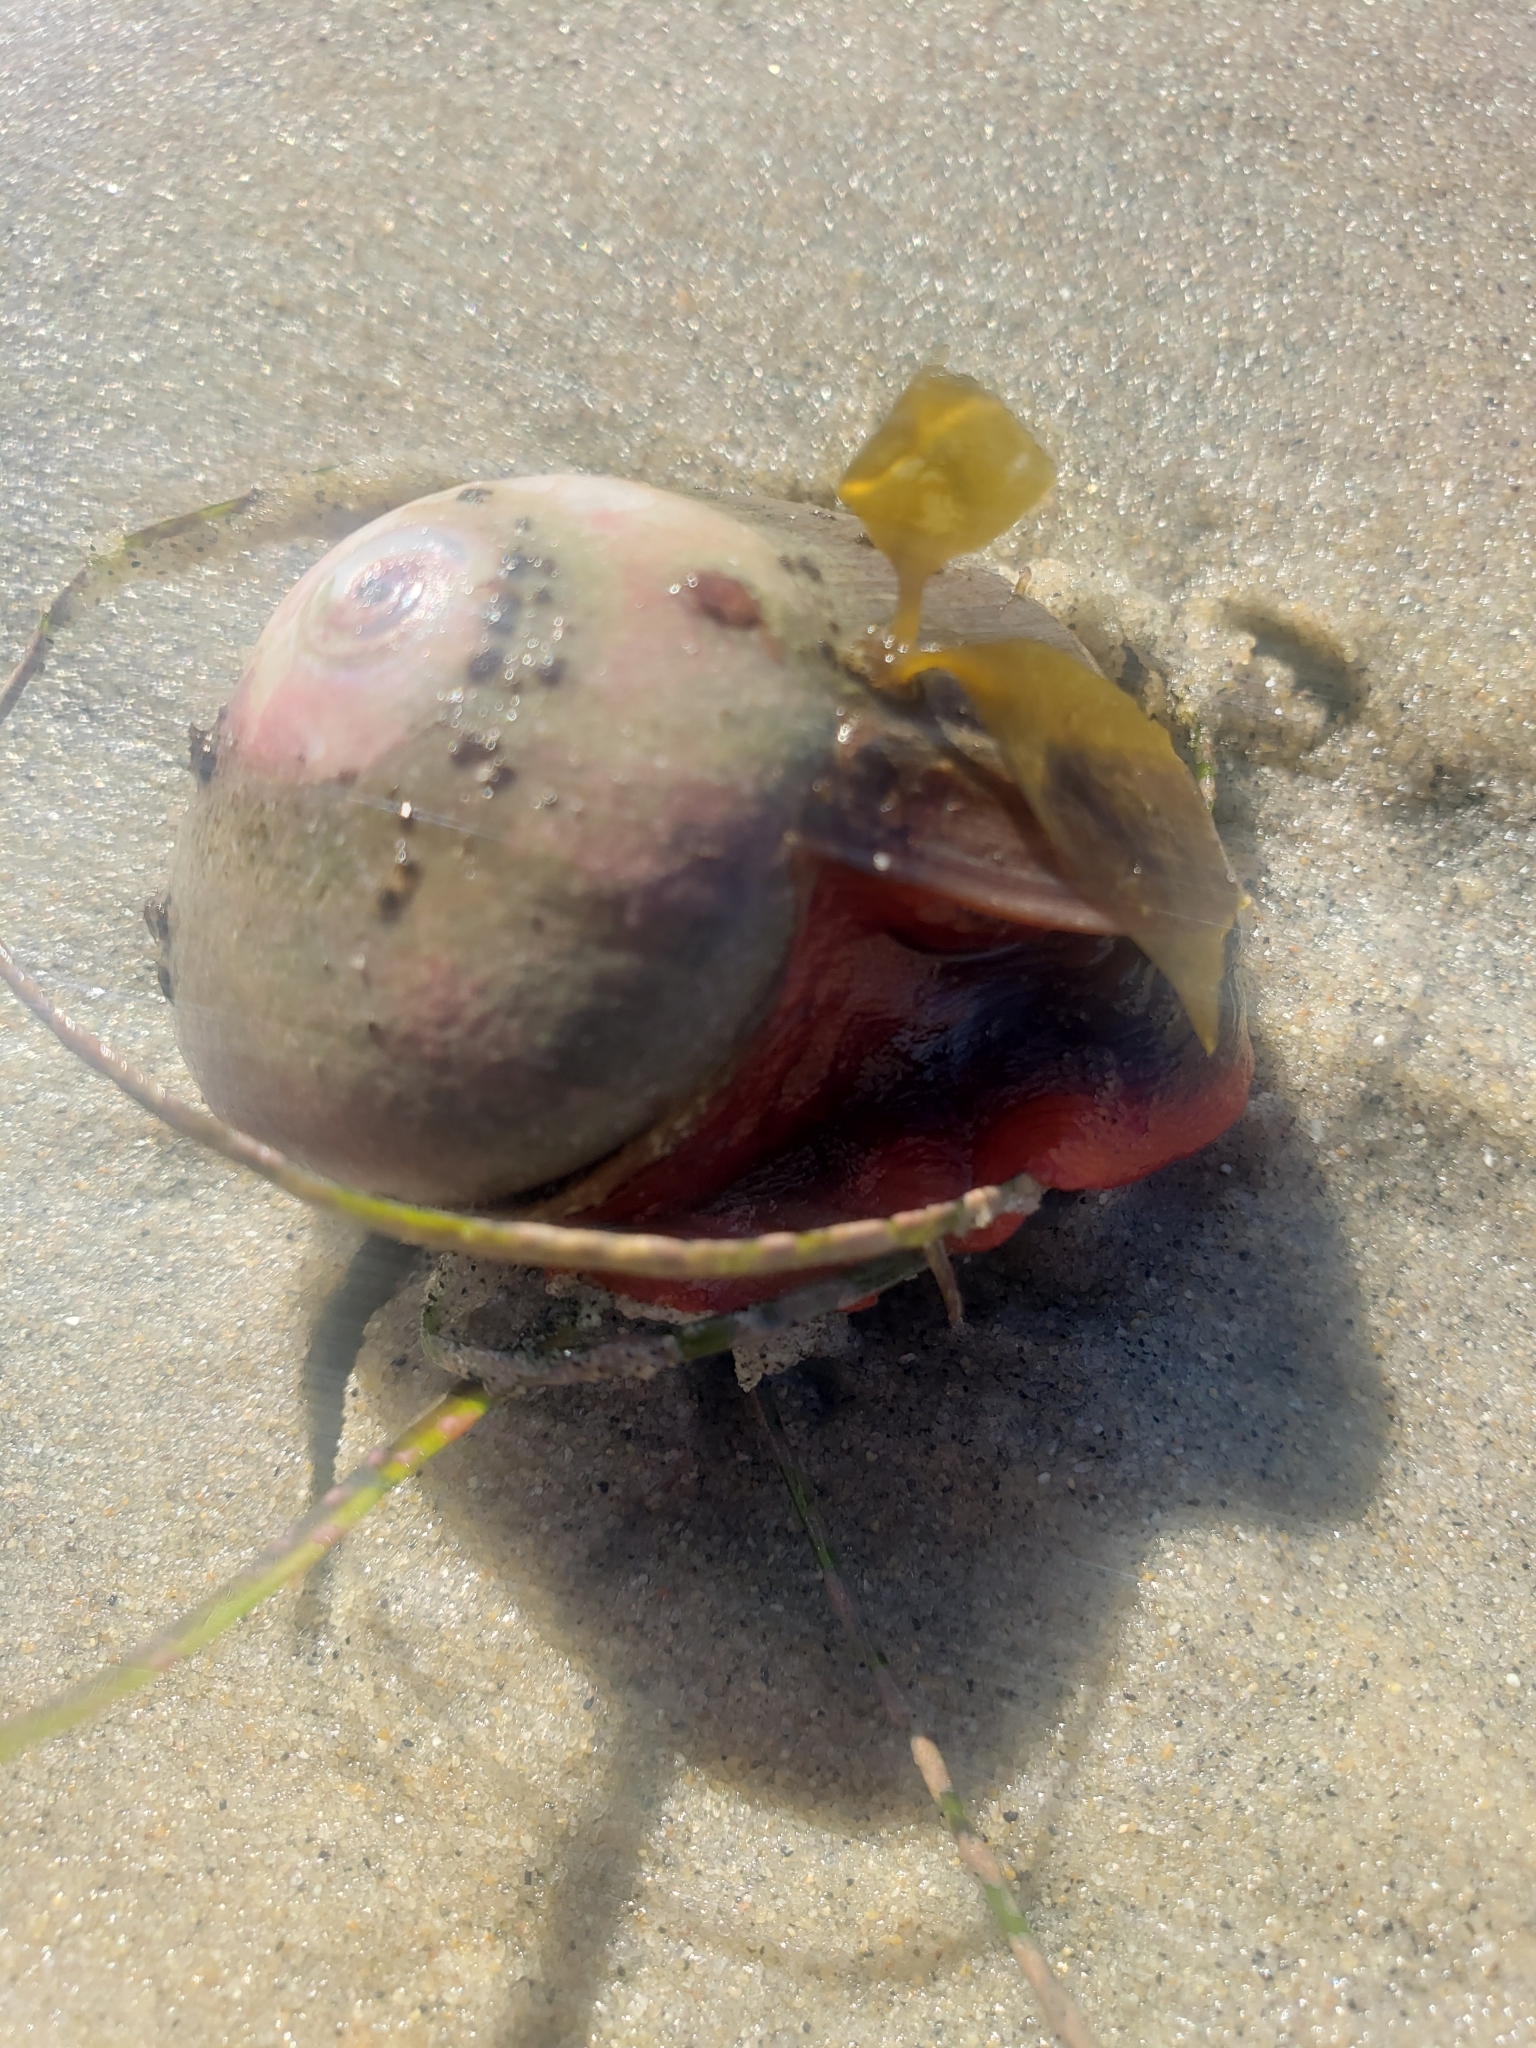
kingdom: Animalia
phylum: Mollusca
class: Gastropoda
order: Trochida
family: Tegulidae
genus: Norrisia
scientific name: Norrisia norrisii
